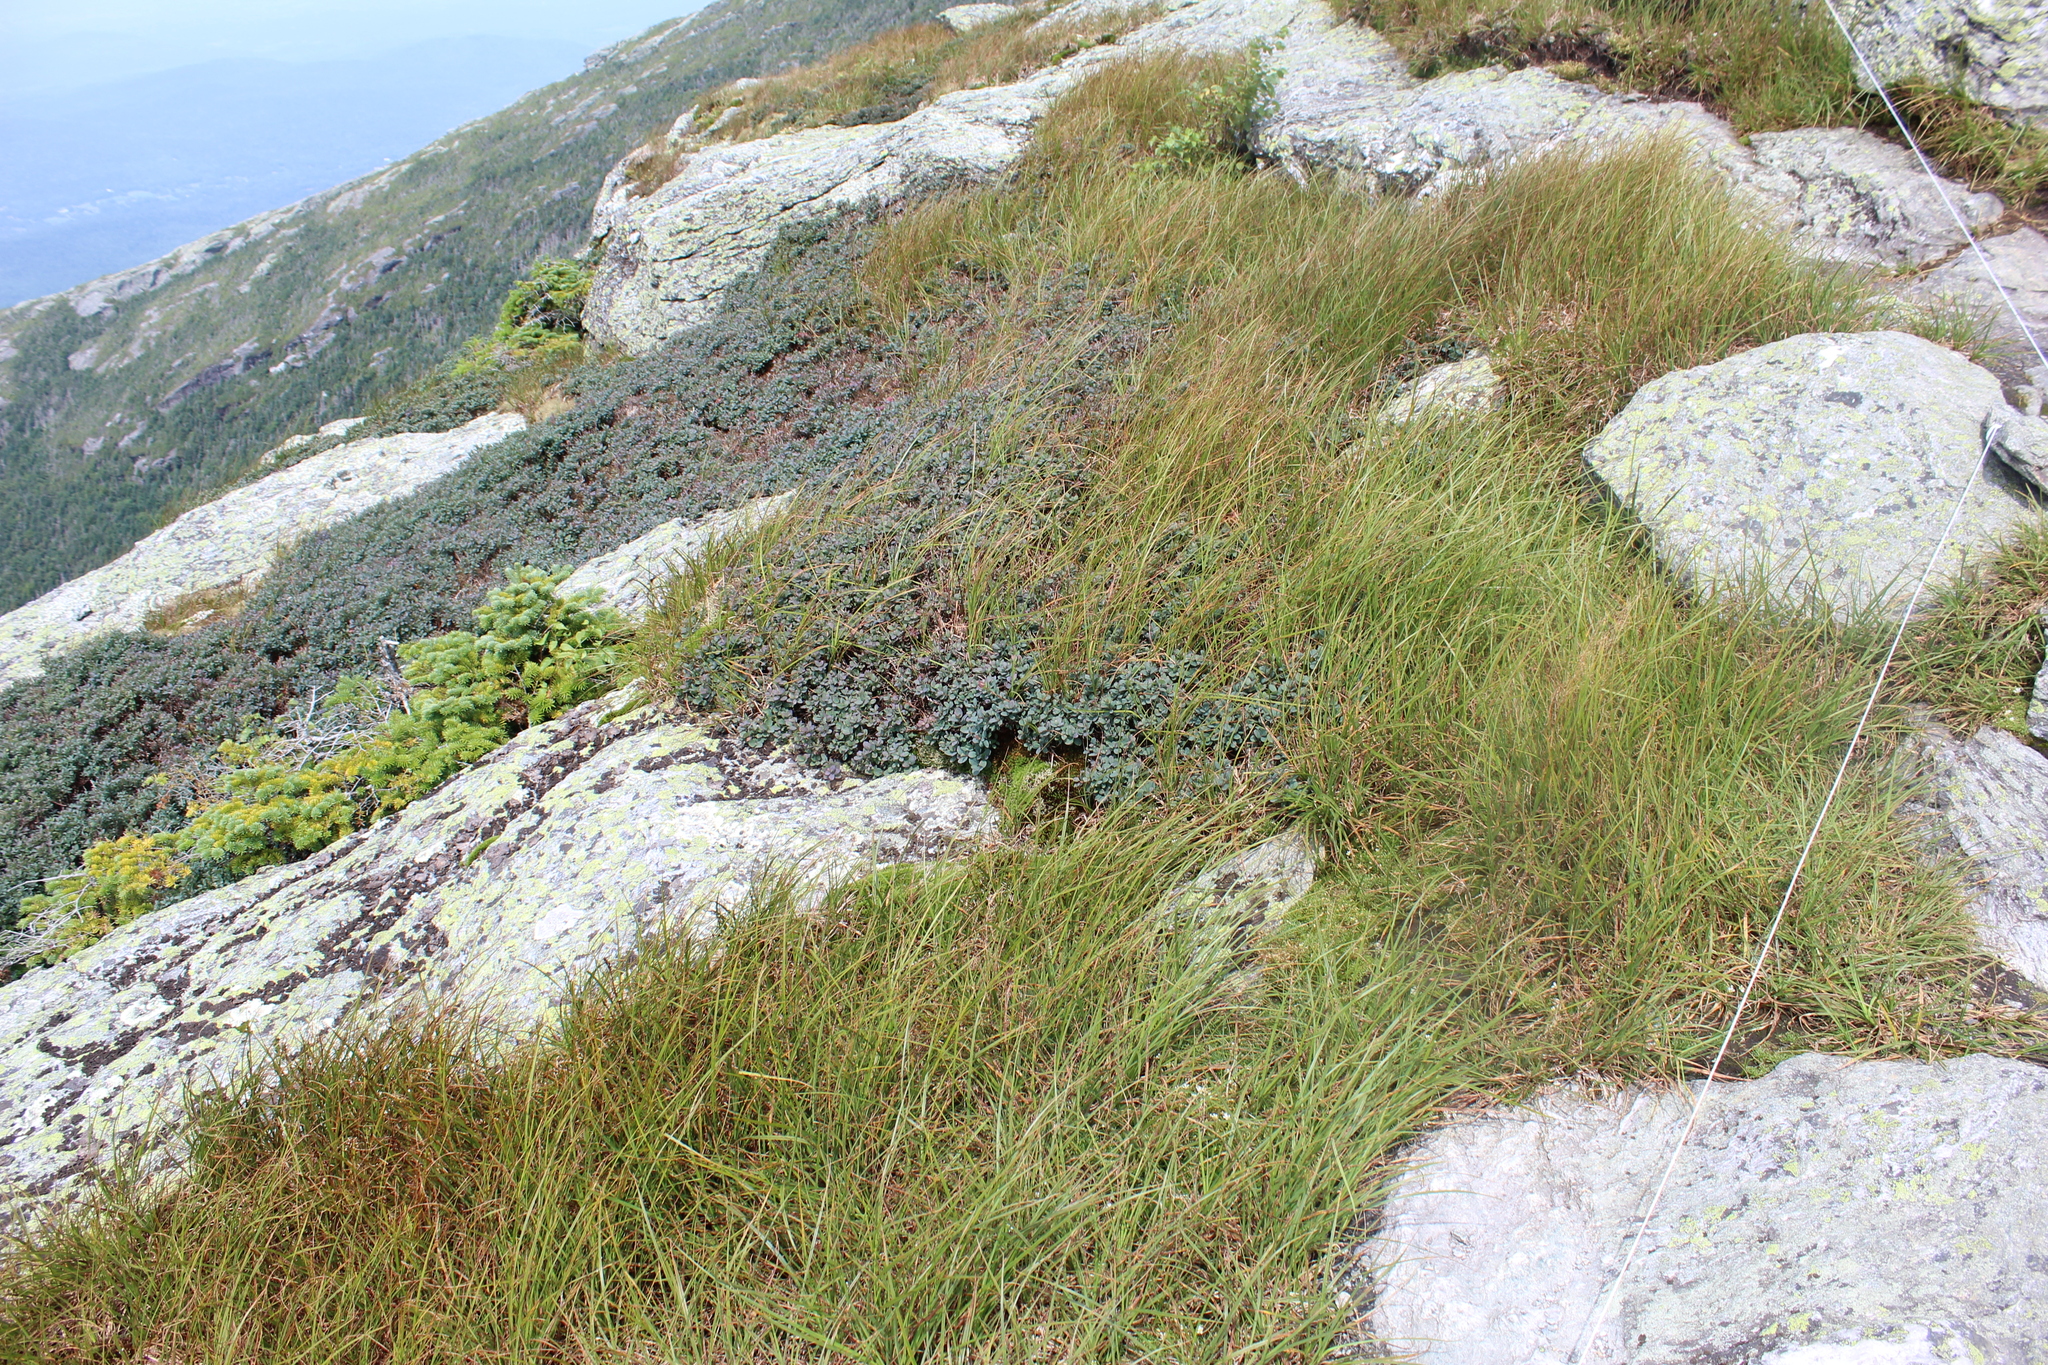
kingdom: Plantae
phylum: Tracheophyta
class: Magnoliopsida
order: Ericales
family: Ericaceae
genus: Vaccinium
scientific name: Vaccinium uliginosum
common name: Bog bilberry
